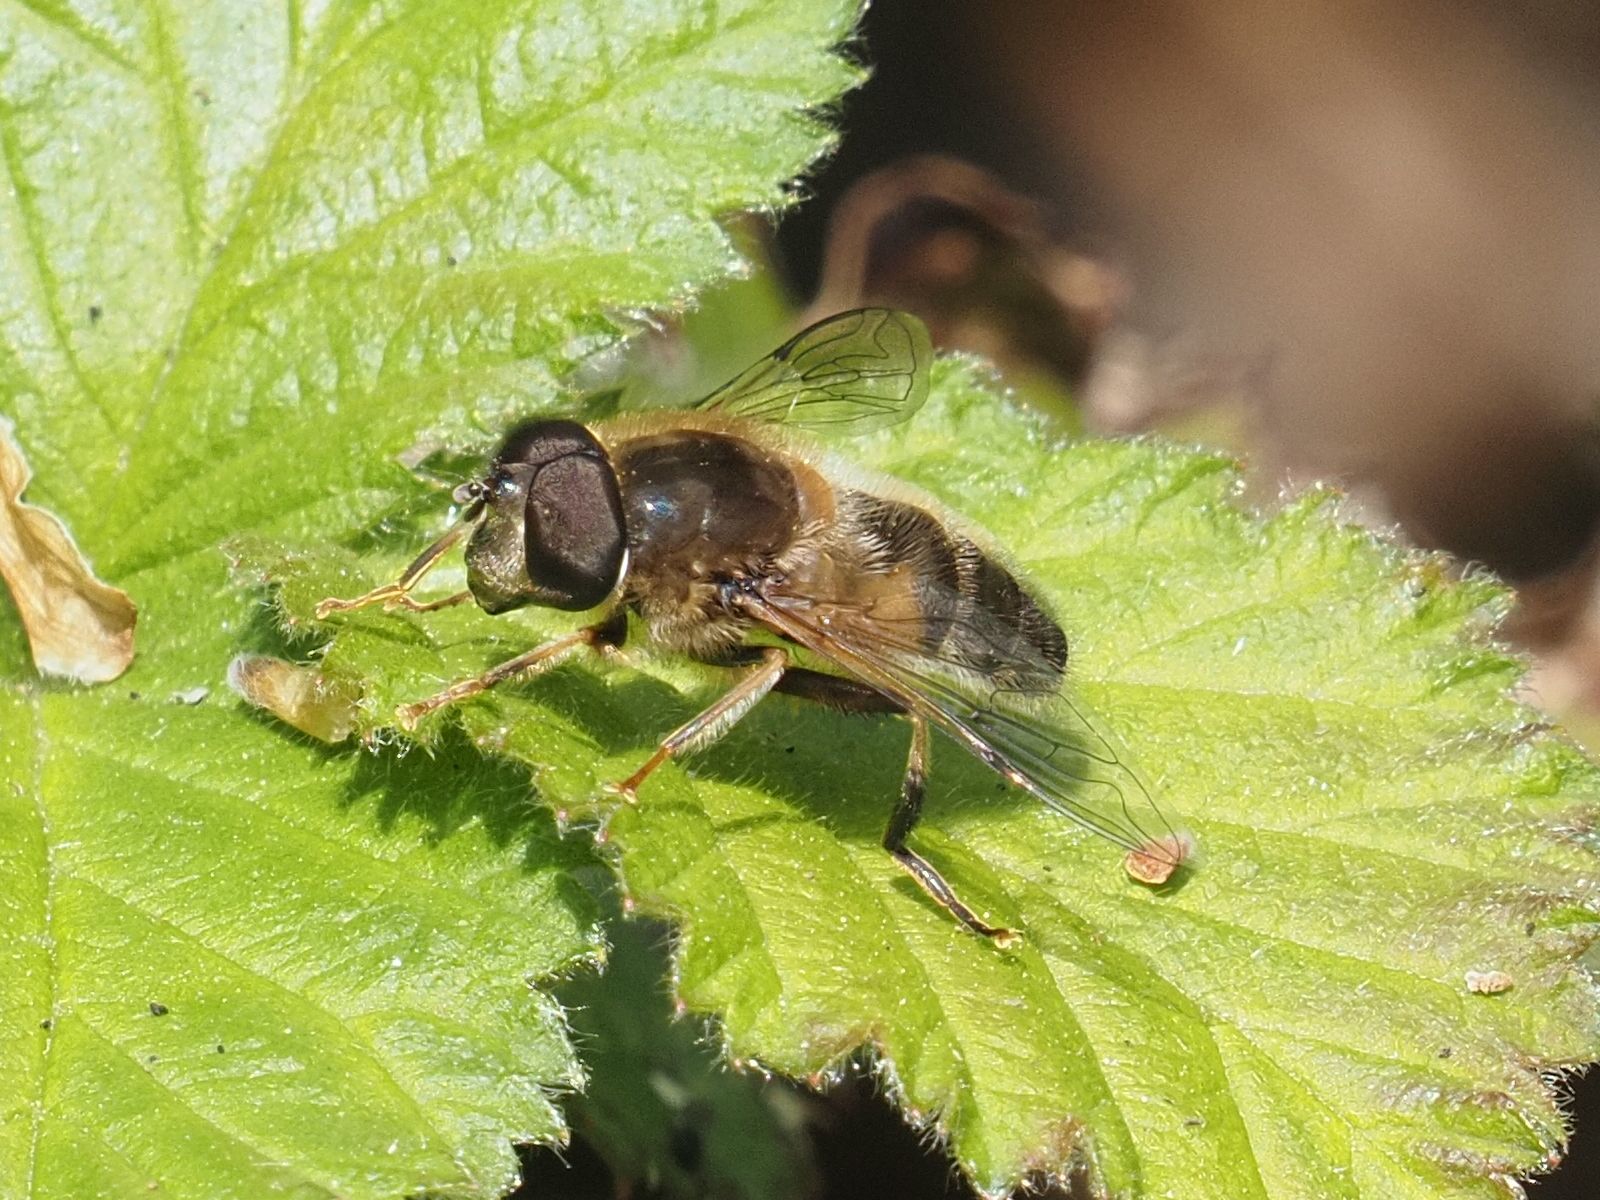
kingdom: Animalia
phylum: Arthropoda
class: Insecta
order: Diptera
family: Syrphidae
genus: Eristalis
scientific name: Eristalis pertinax
